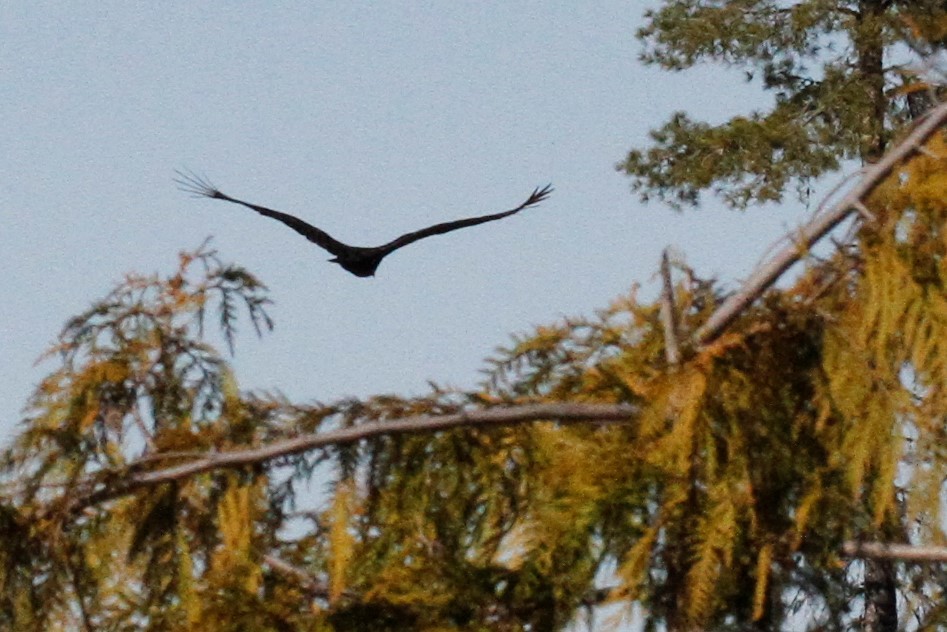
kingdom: Animalia
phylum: Chordata
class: Aves
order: Accipitriformes
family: Cathartidae
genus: Cathartes
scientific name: Cathartes aura
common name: Turkey vulture
